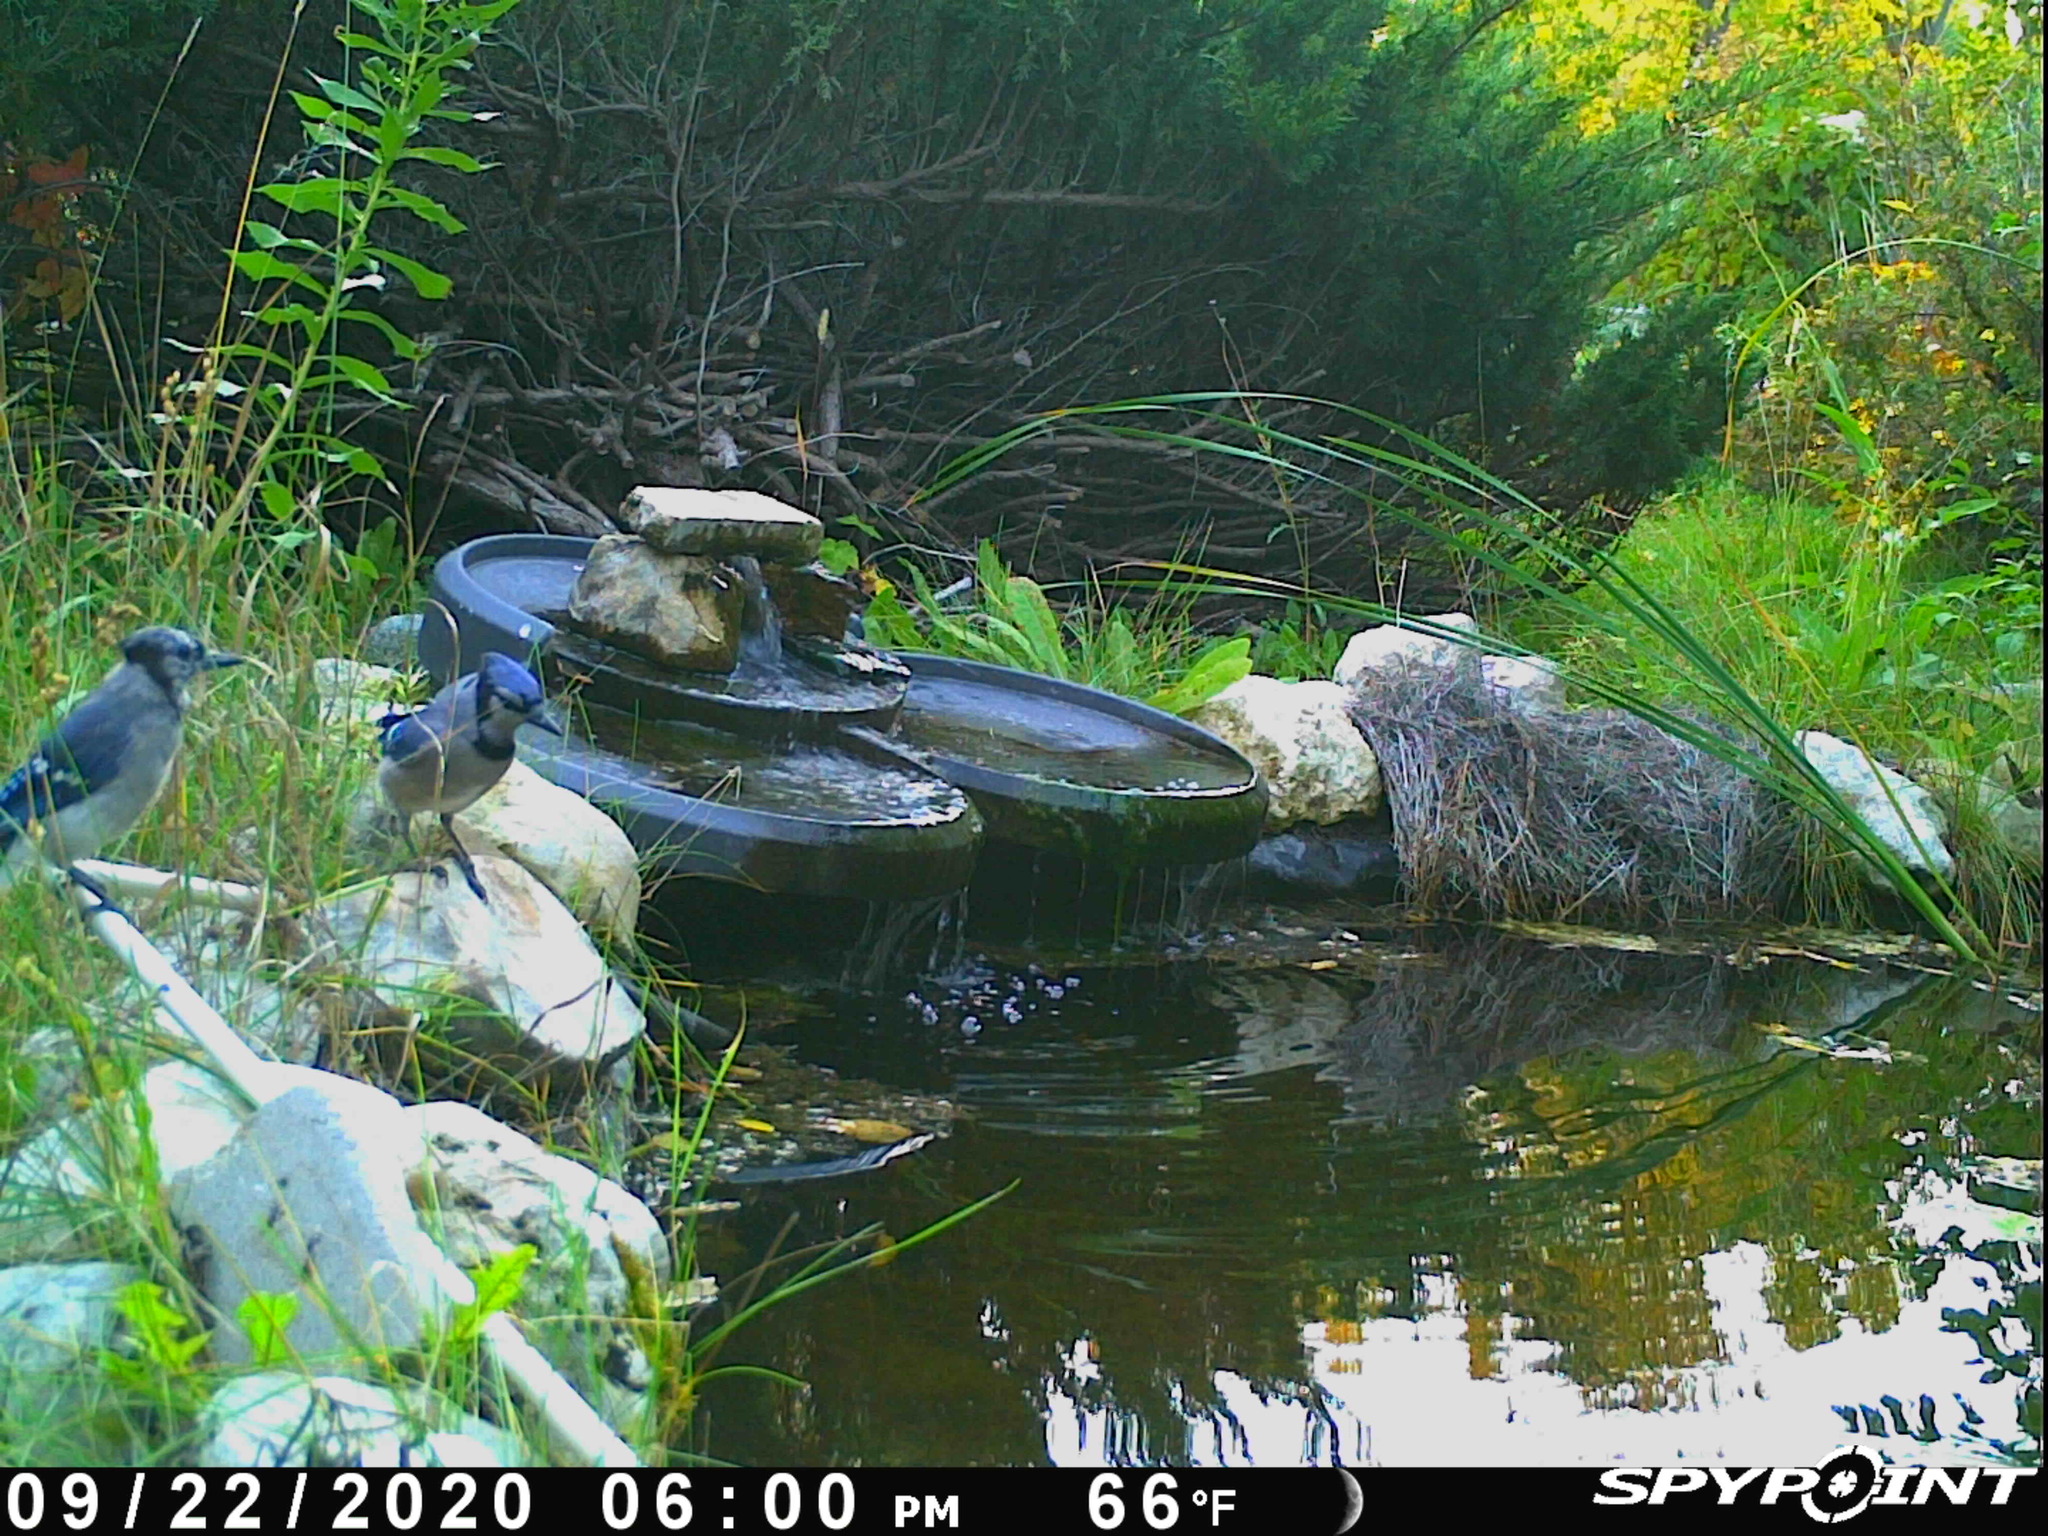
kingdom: Animalia
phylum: Chordata
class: Aves
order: Passeriformes
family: Corvidae
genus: Cyanocitta
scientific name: Cyanocitta cristata
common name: Blue jay
